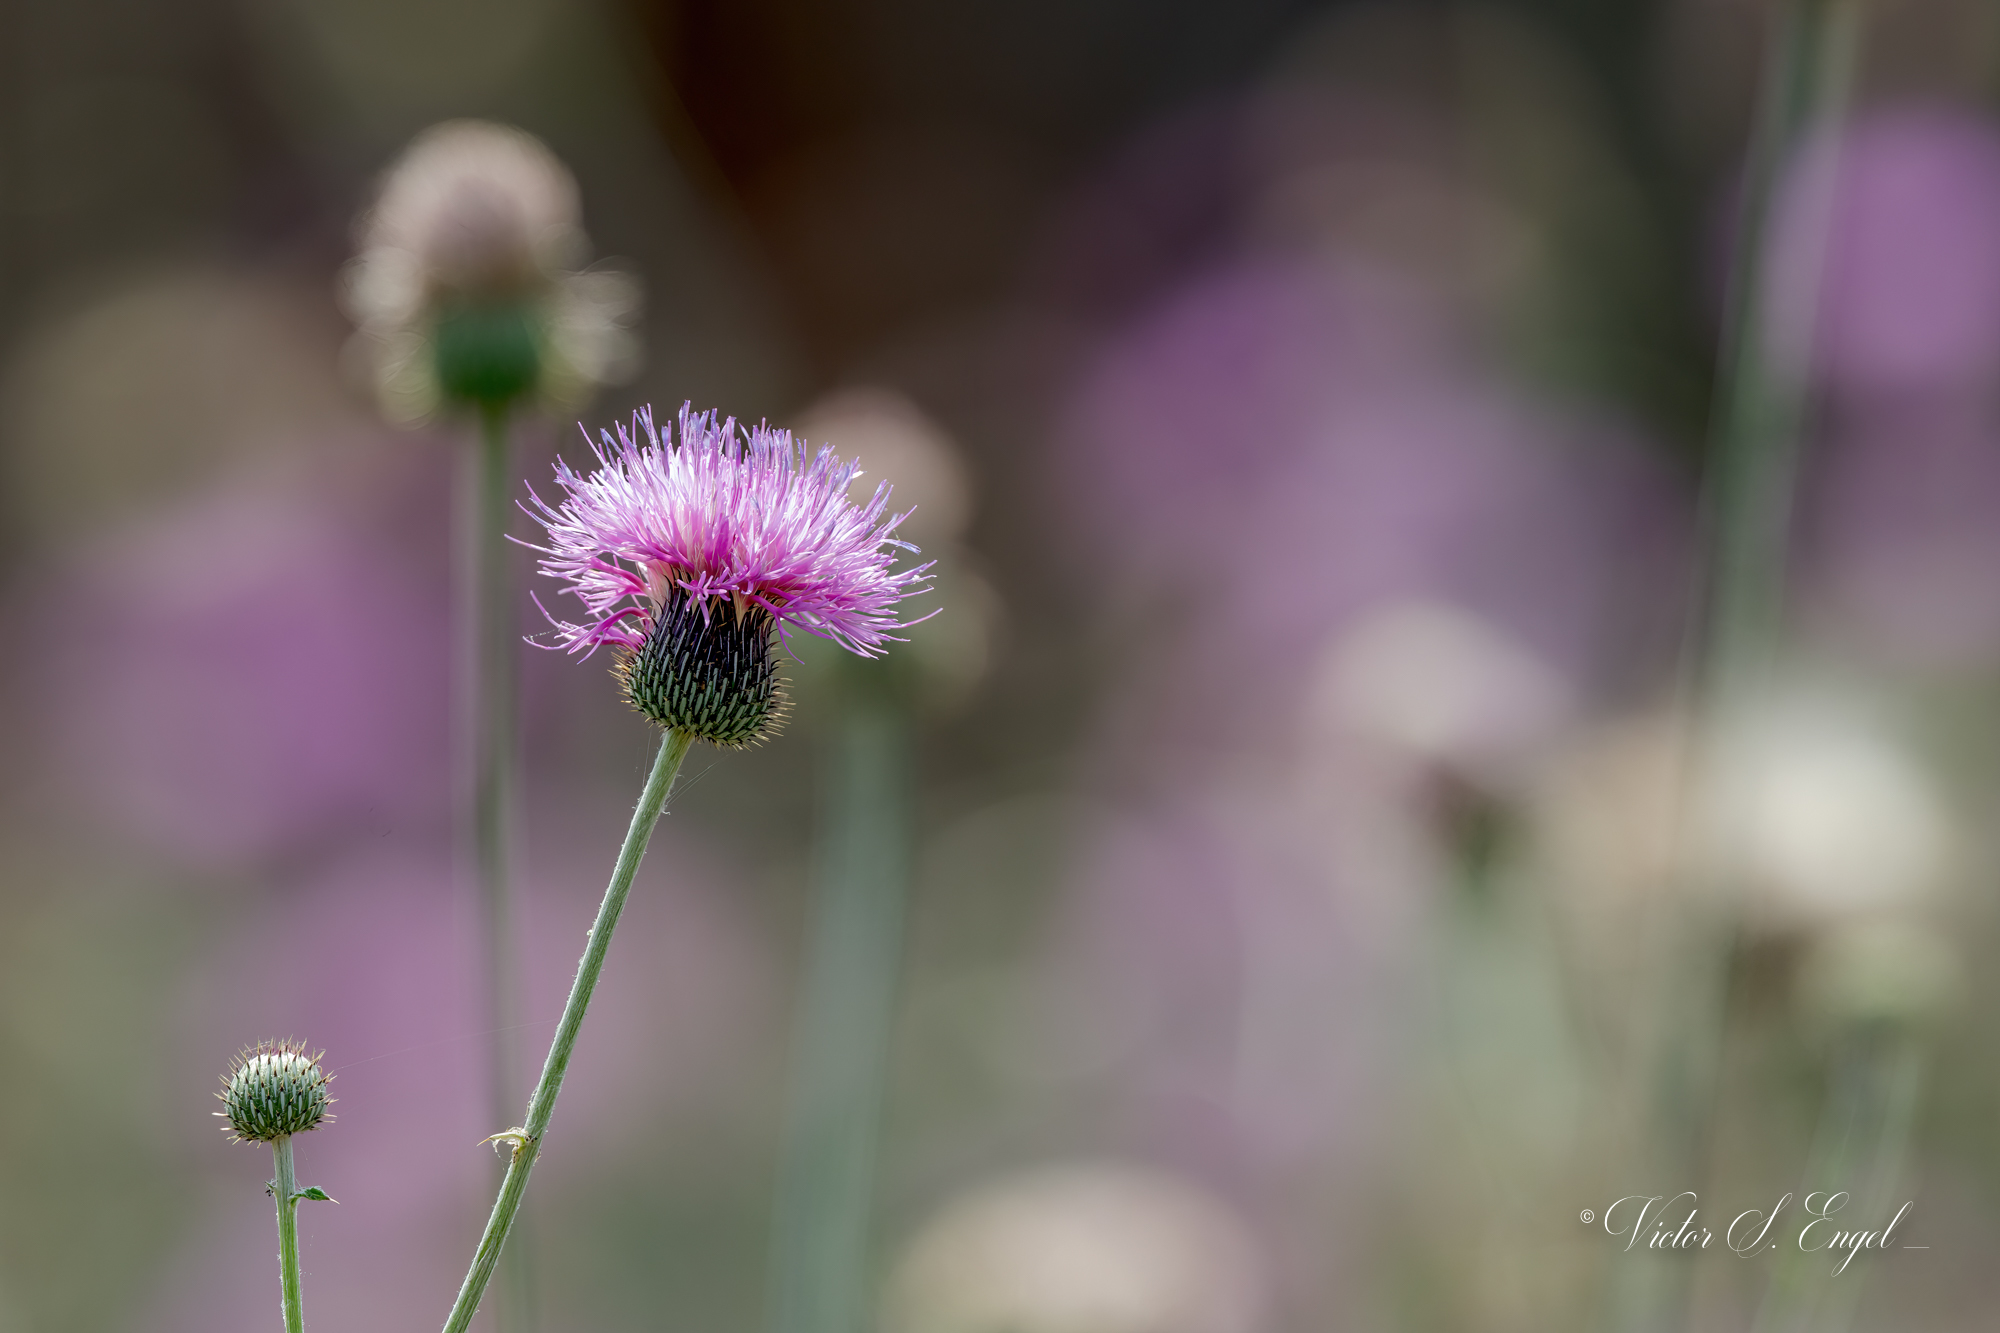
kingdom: Plantae
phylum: Tracheophyta
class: Magnoliopsida
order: Asterales
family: Asteraceae
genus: Cirsium
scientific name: Cirsium texanum
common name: Texas purple thistle
